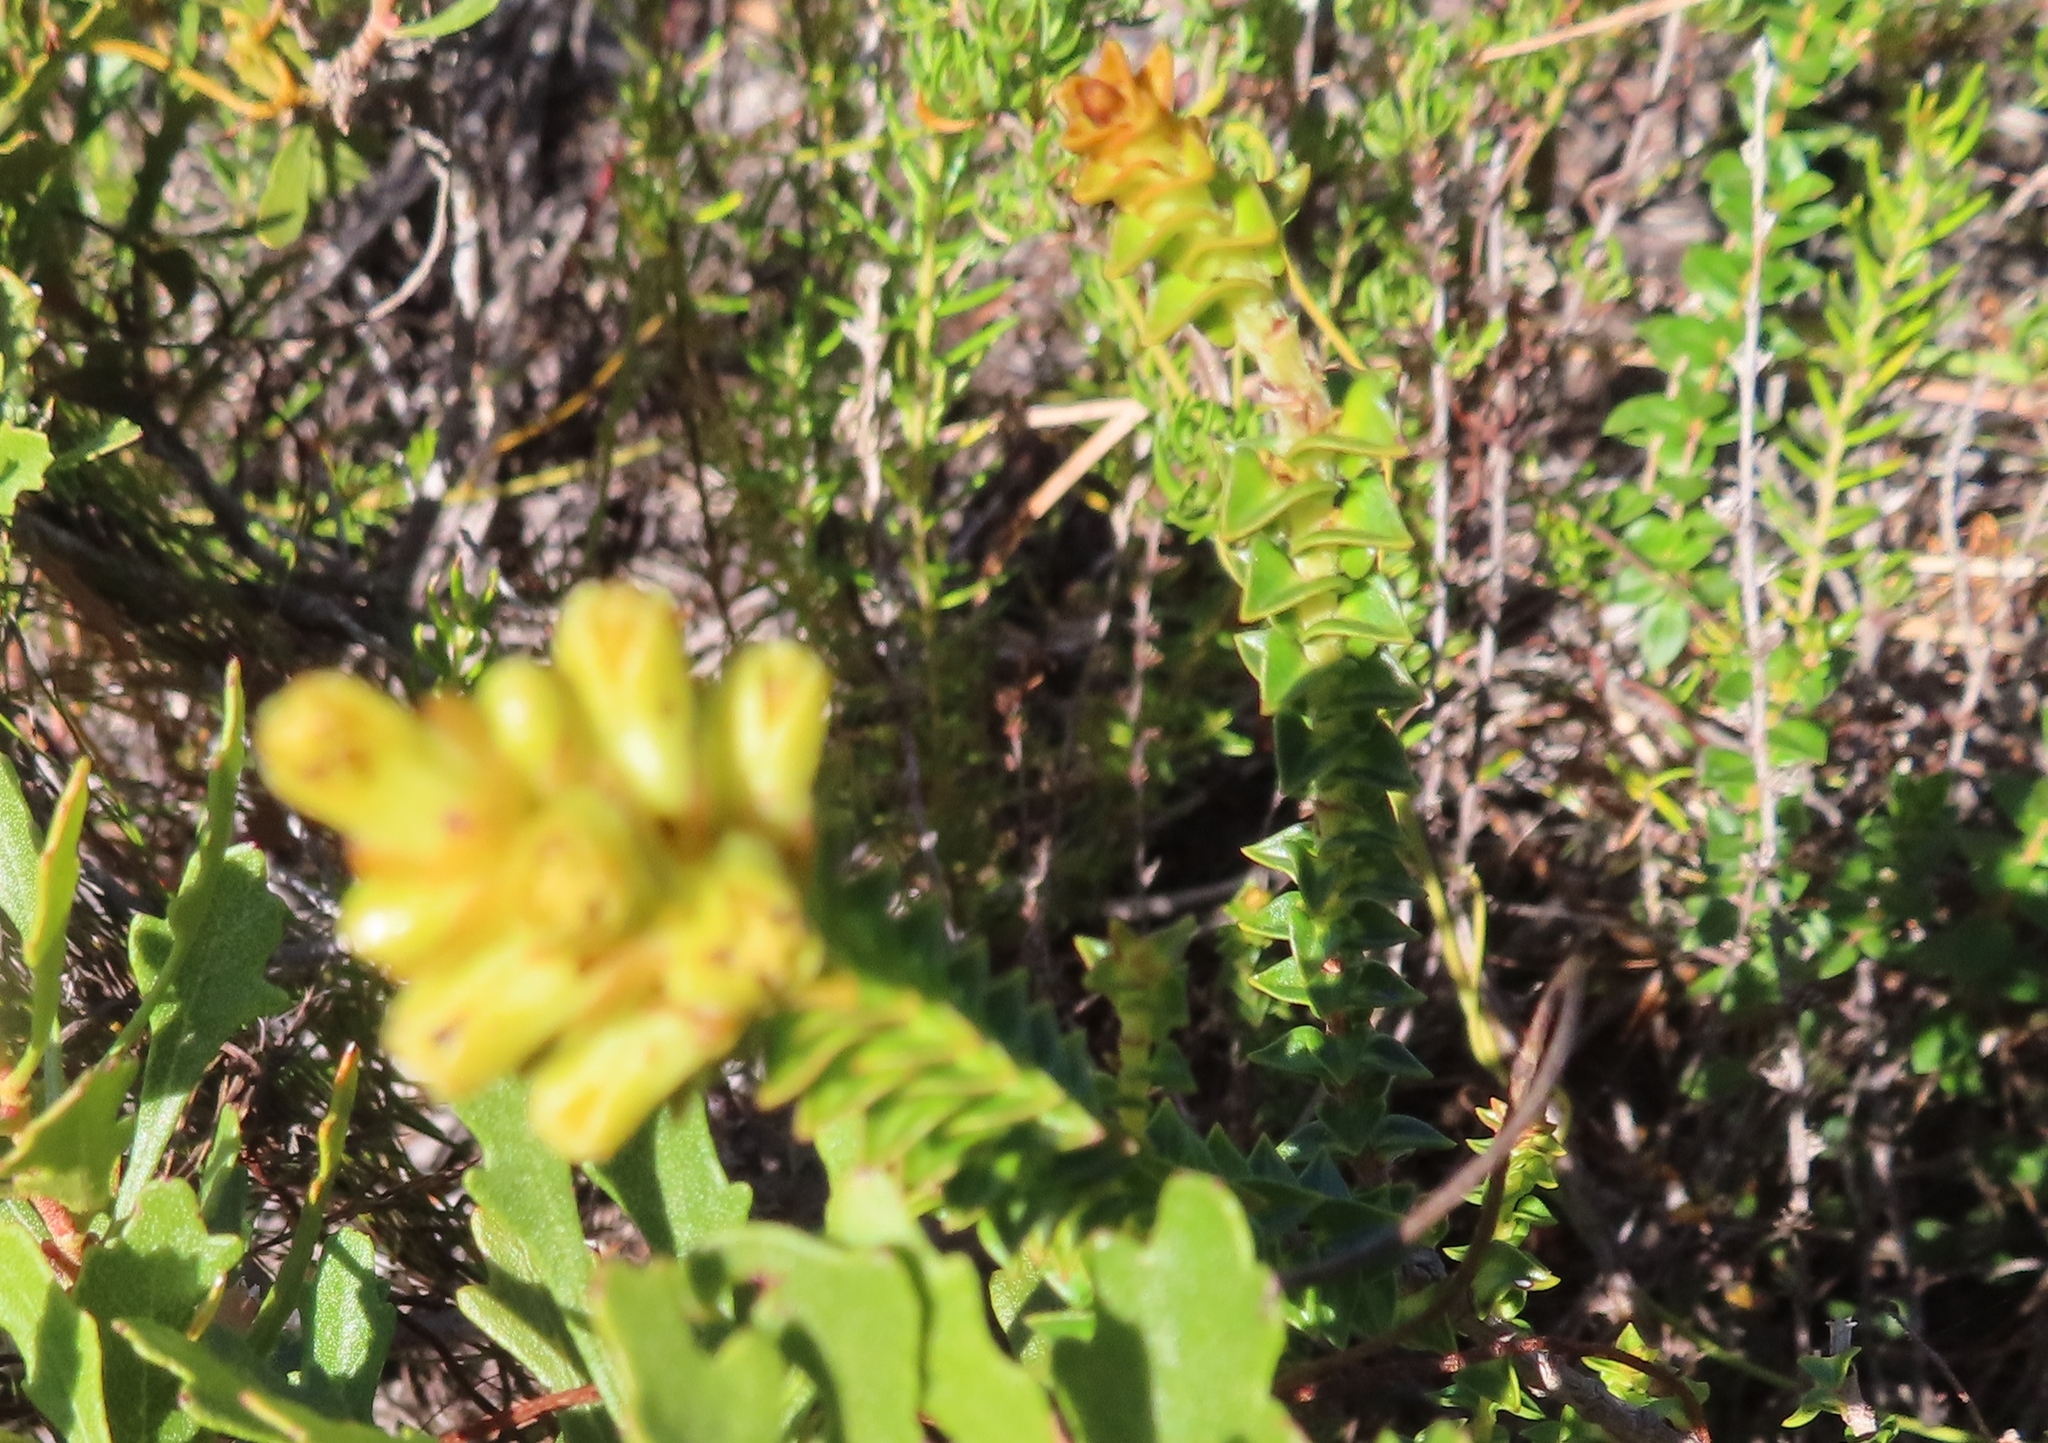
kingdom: Plantae
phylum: Tracheophyta
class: Magnoliopsida
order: Myrtales
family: Penaeaceae
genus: Penaea
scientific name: Penaea mucronata
